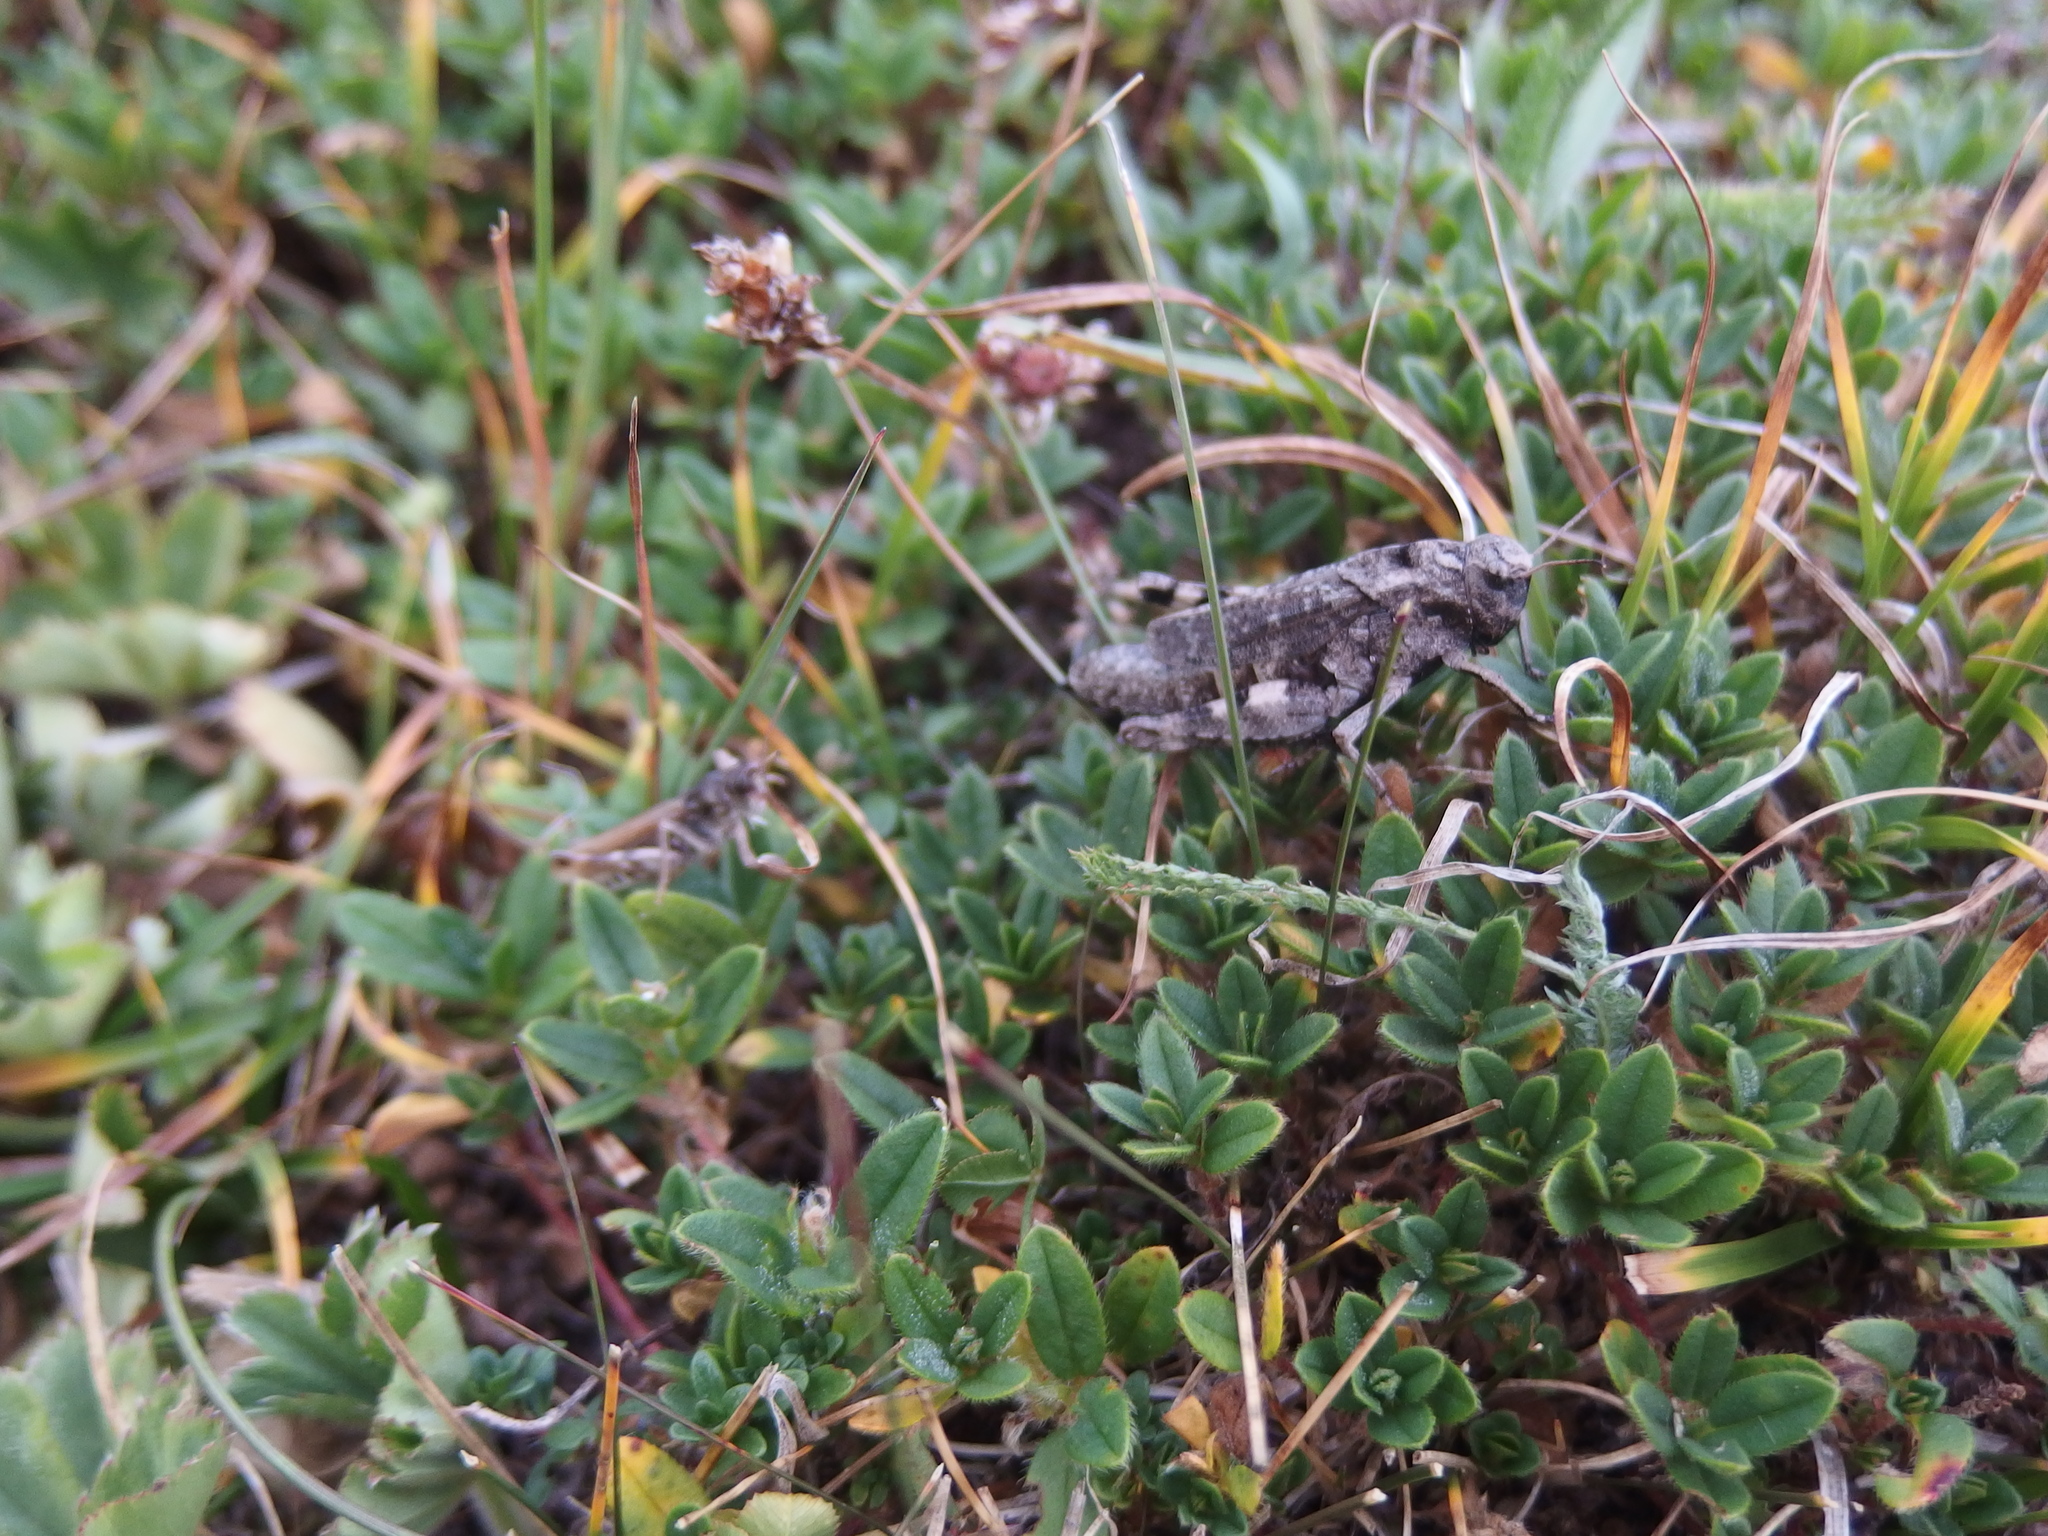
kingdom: Animalia
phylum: Arthropoda
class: Insecta
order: Orthoptera
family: Acrididae
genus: Psophus
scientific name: Psophus stridulus
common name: Rattle grasshopper
